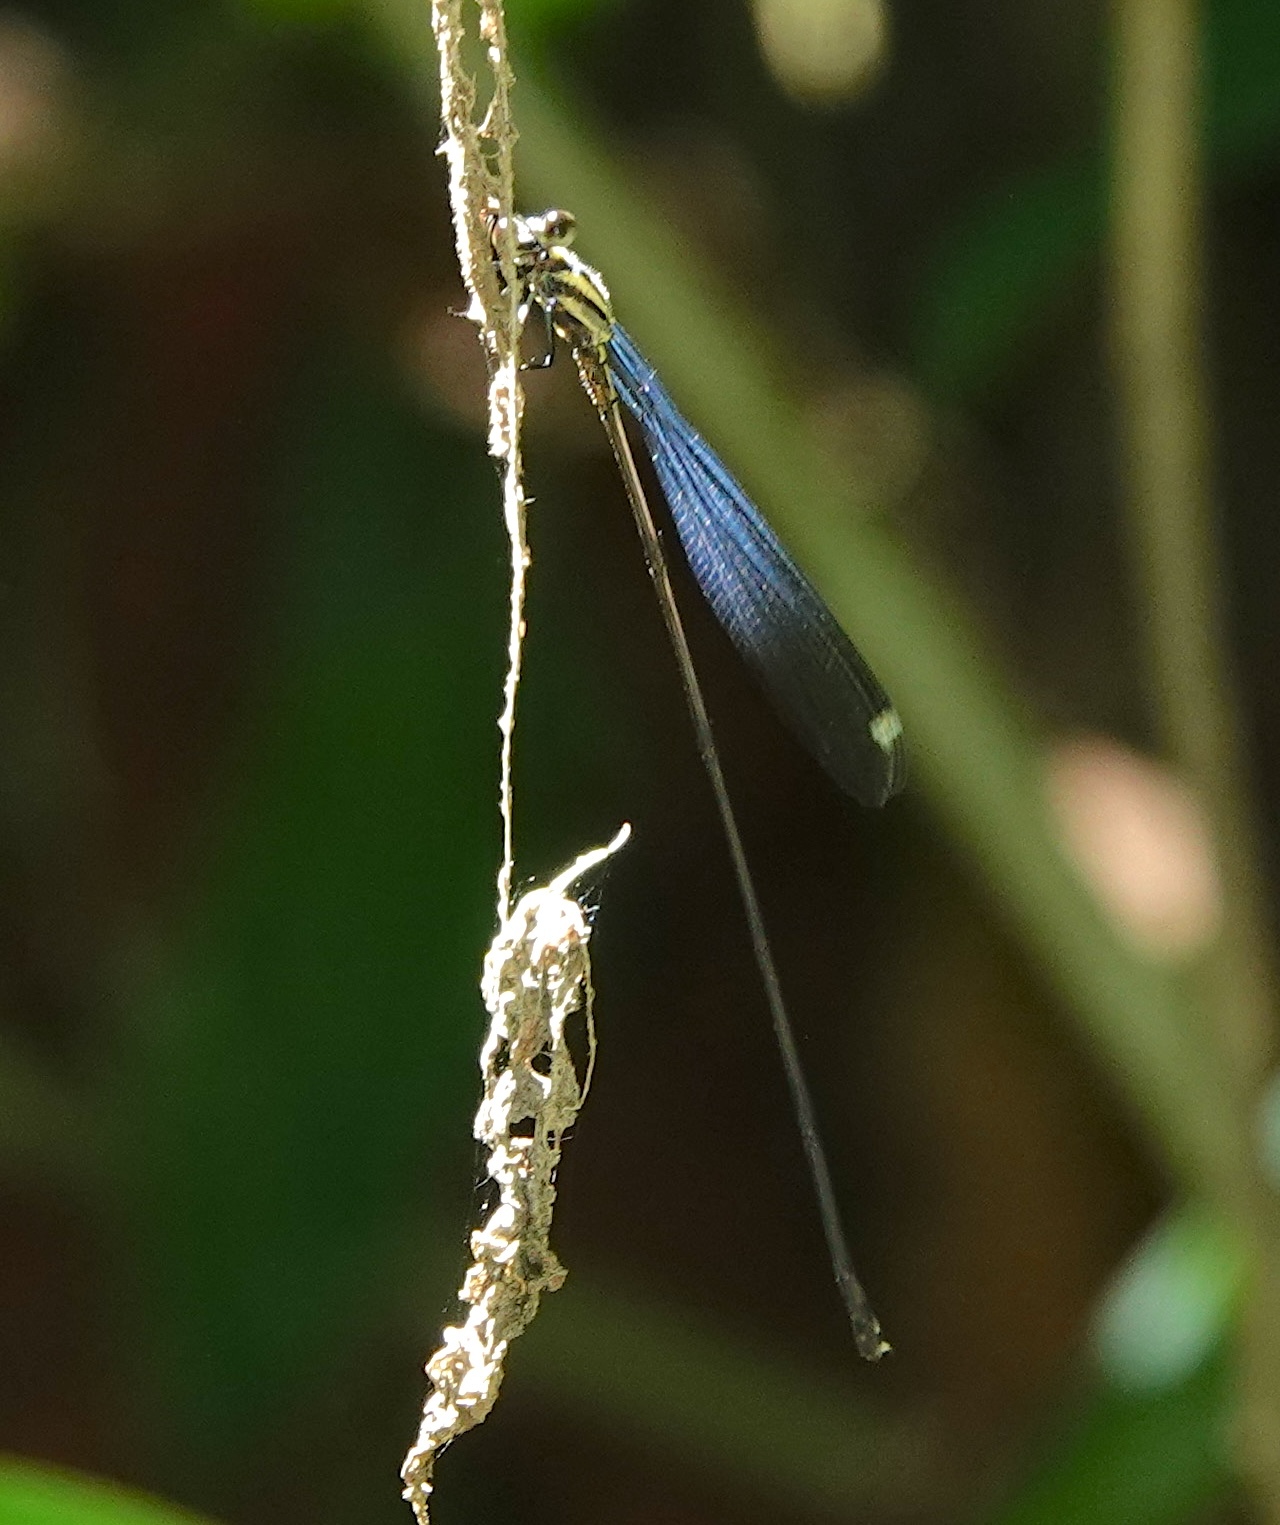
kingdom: Animalia
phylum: Arthropoda
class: Insecta
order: Odonata
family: Coenagrionidae
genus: Mecistogaster
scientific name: Mecistogaster modesta
